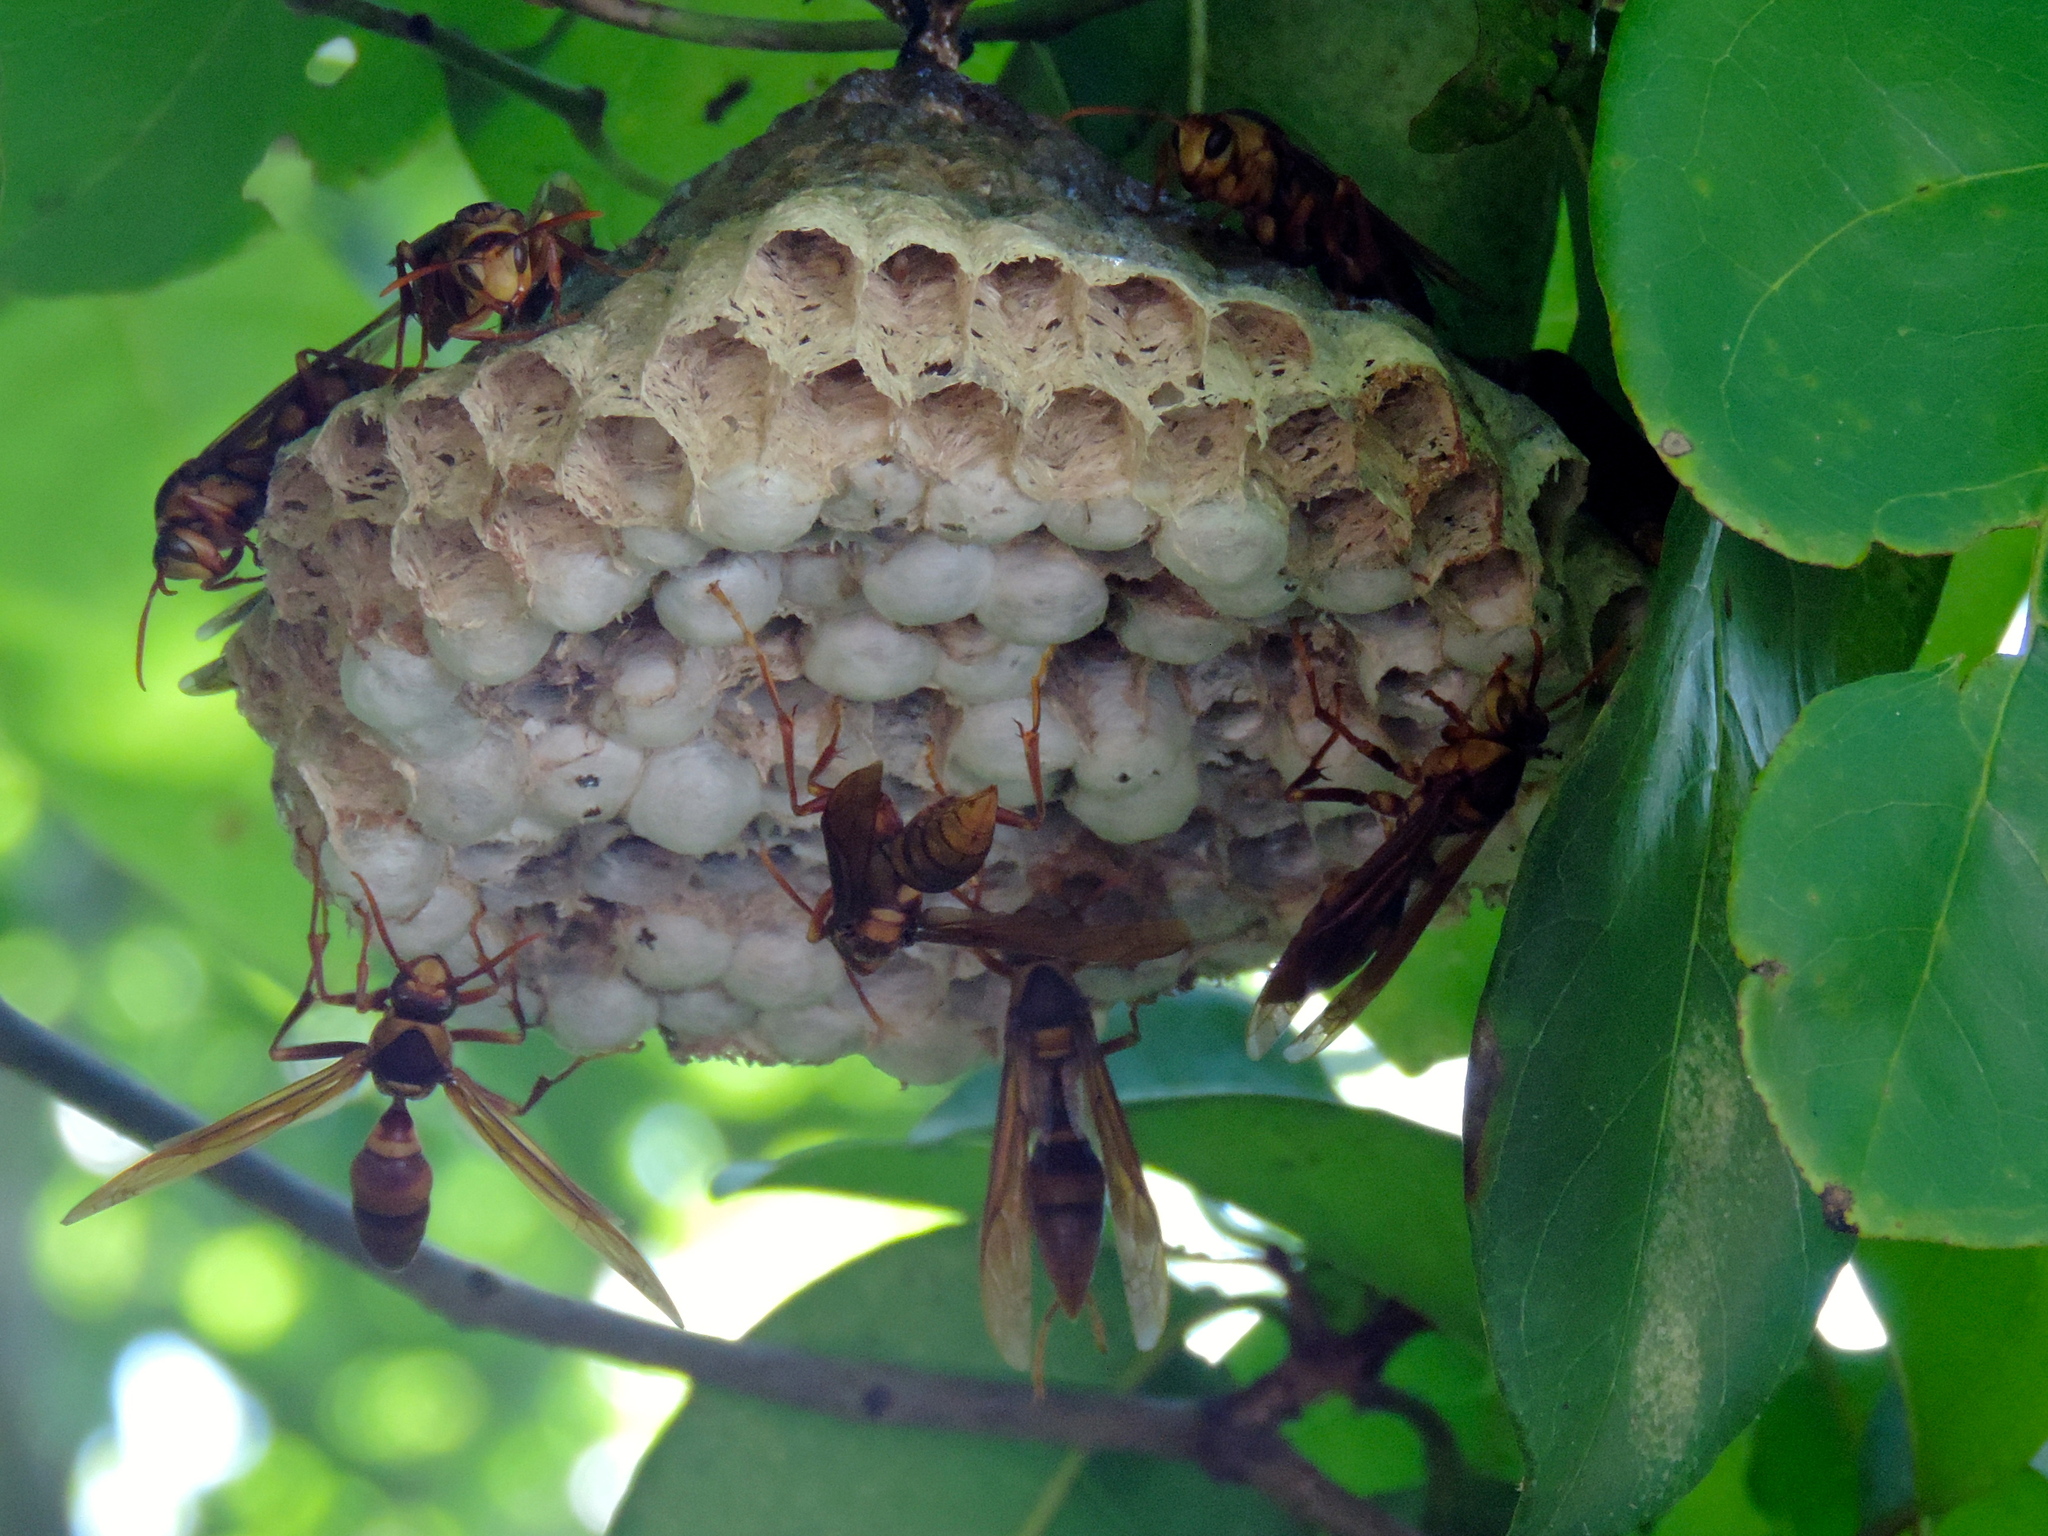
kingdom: Animalia
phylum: Arthropoda
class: Insecta
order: Hymenoptera
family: Eumenidae
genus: Polistes
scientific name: Polistes carnifex
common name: Paper wasp
